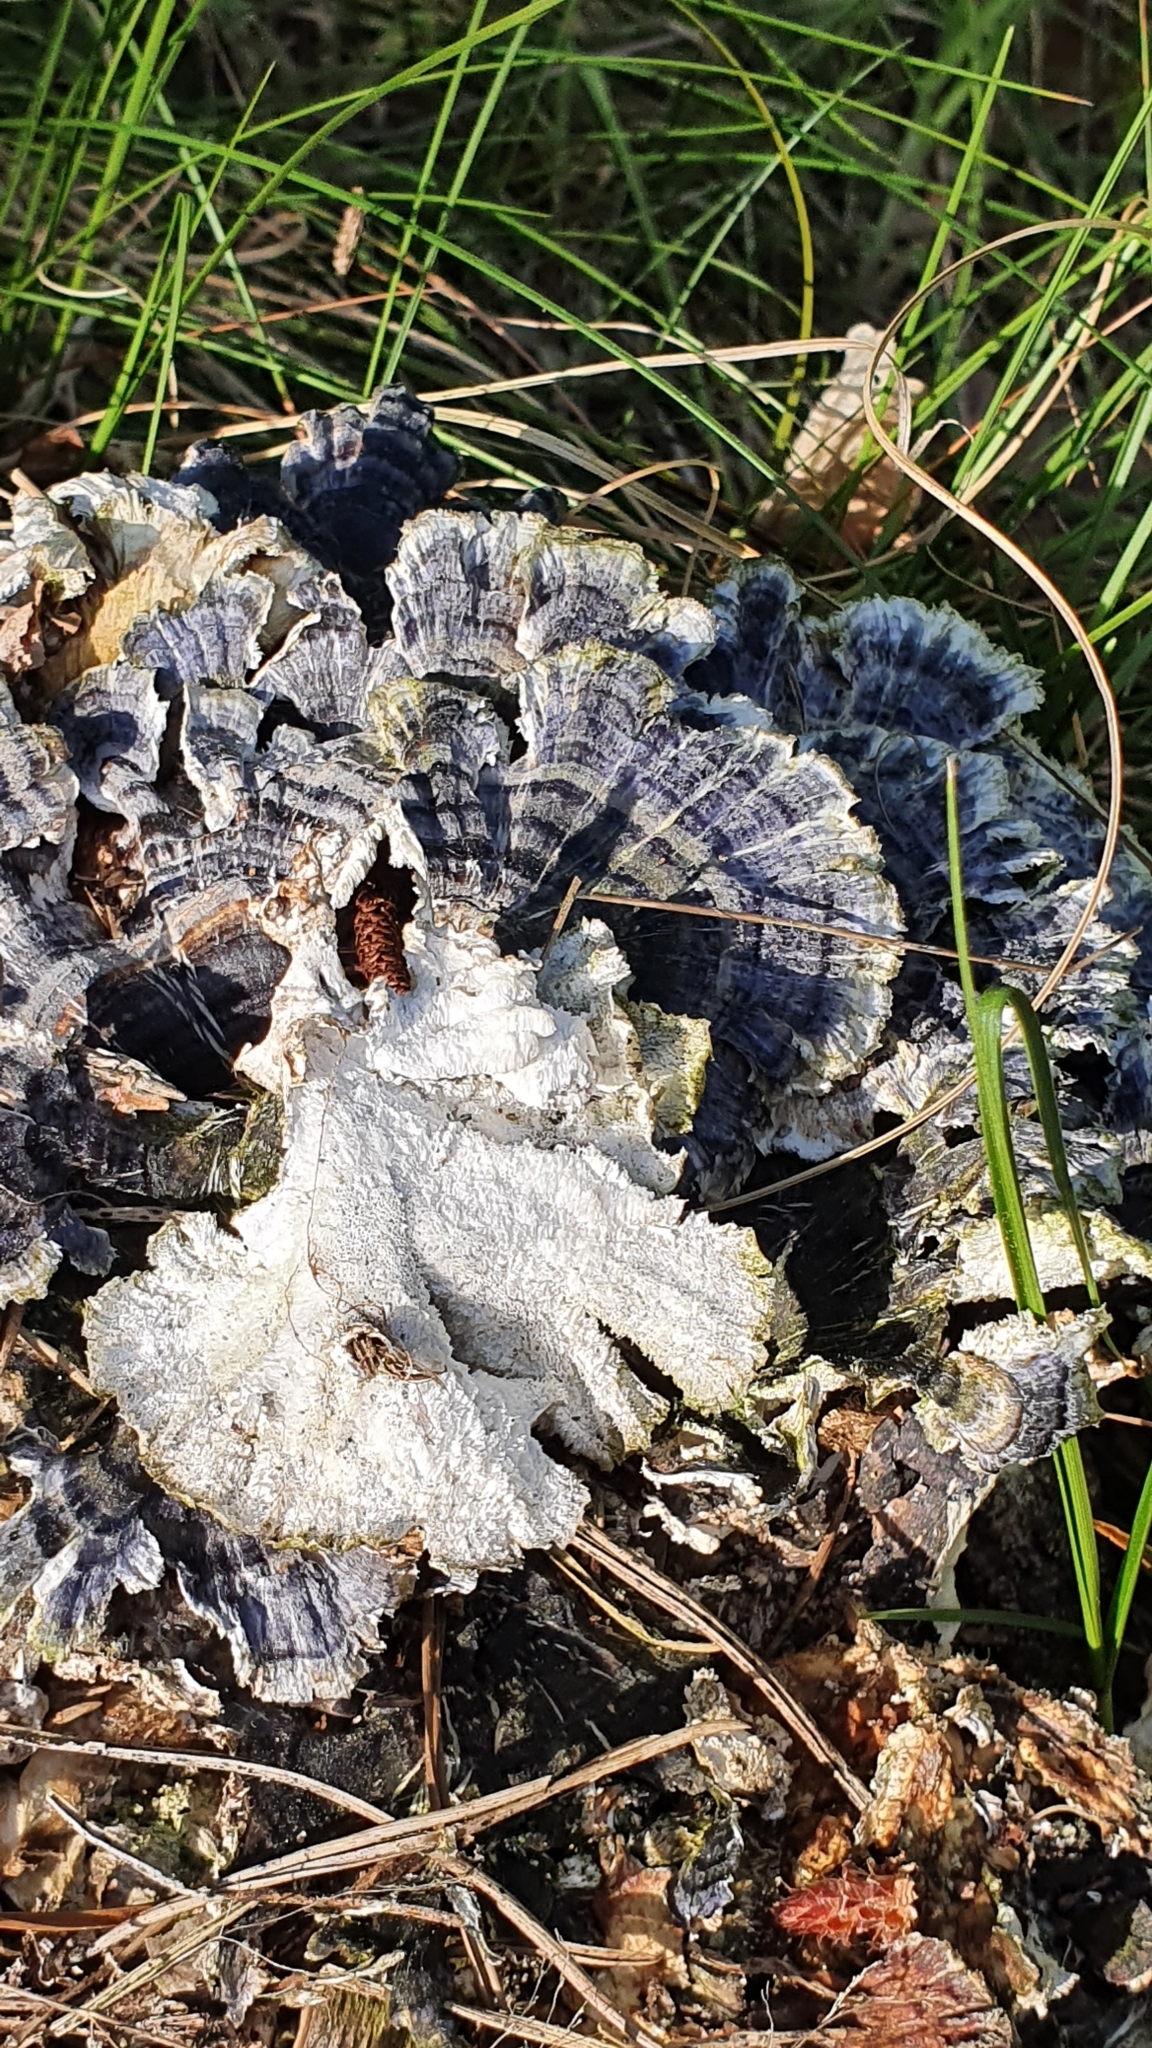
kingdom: Fungi
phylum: Basidiomycota
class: Agaricomycetes
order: Polyporales
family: Polyporaceae
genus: Trametes
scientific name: Trametes versicolor
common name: Turkeytail
